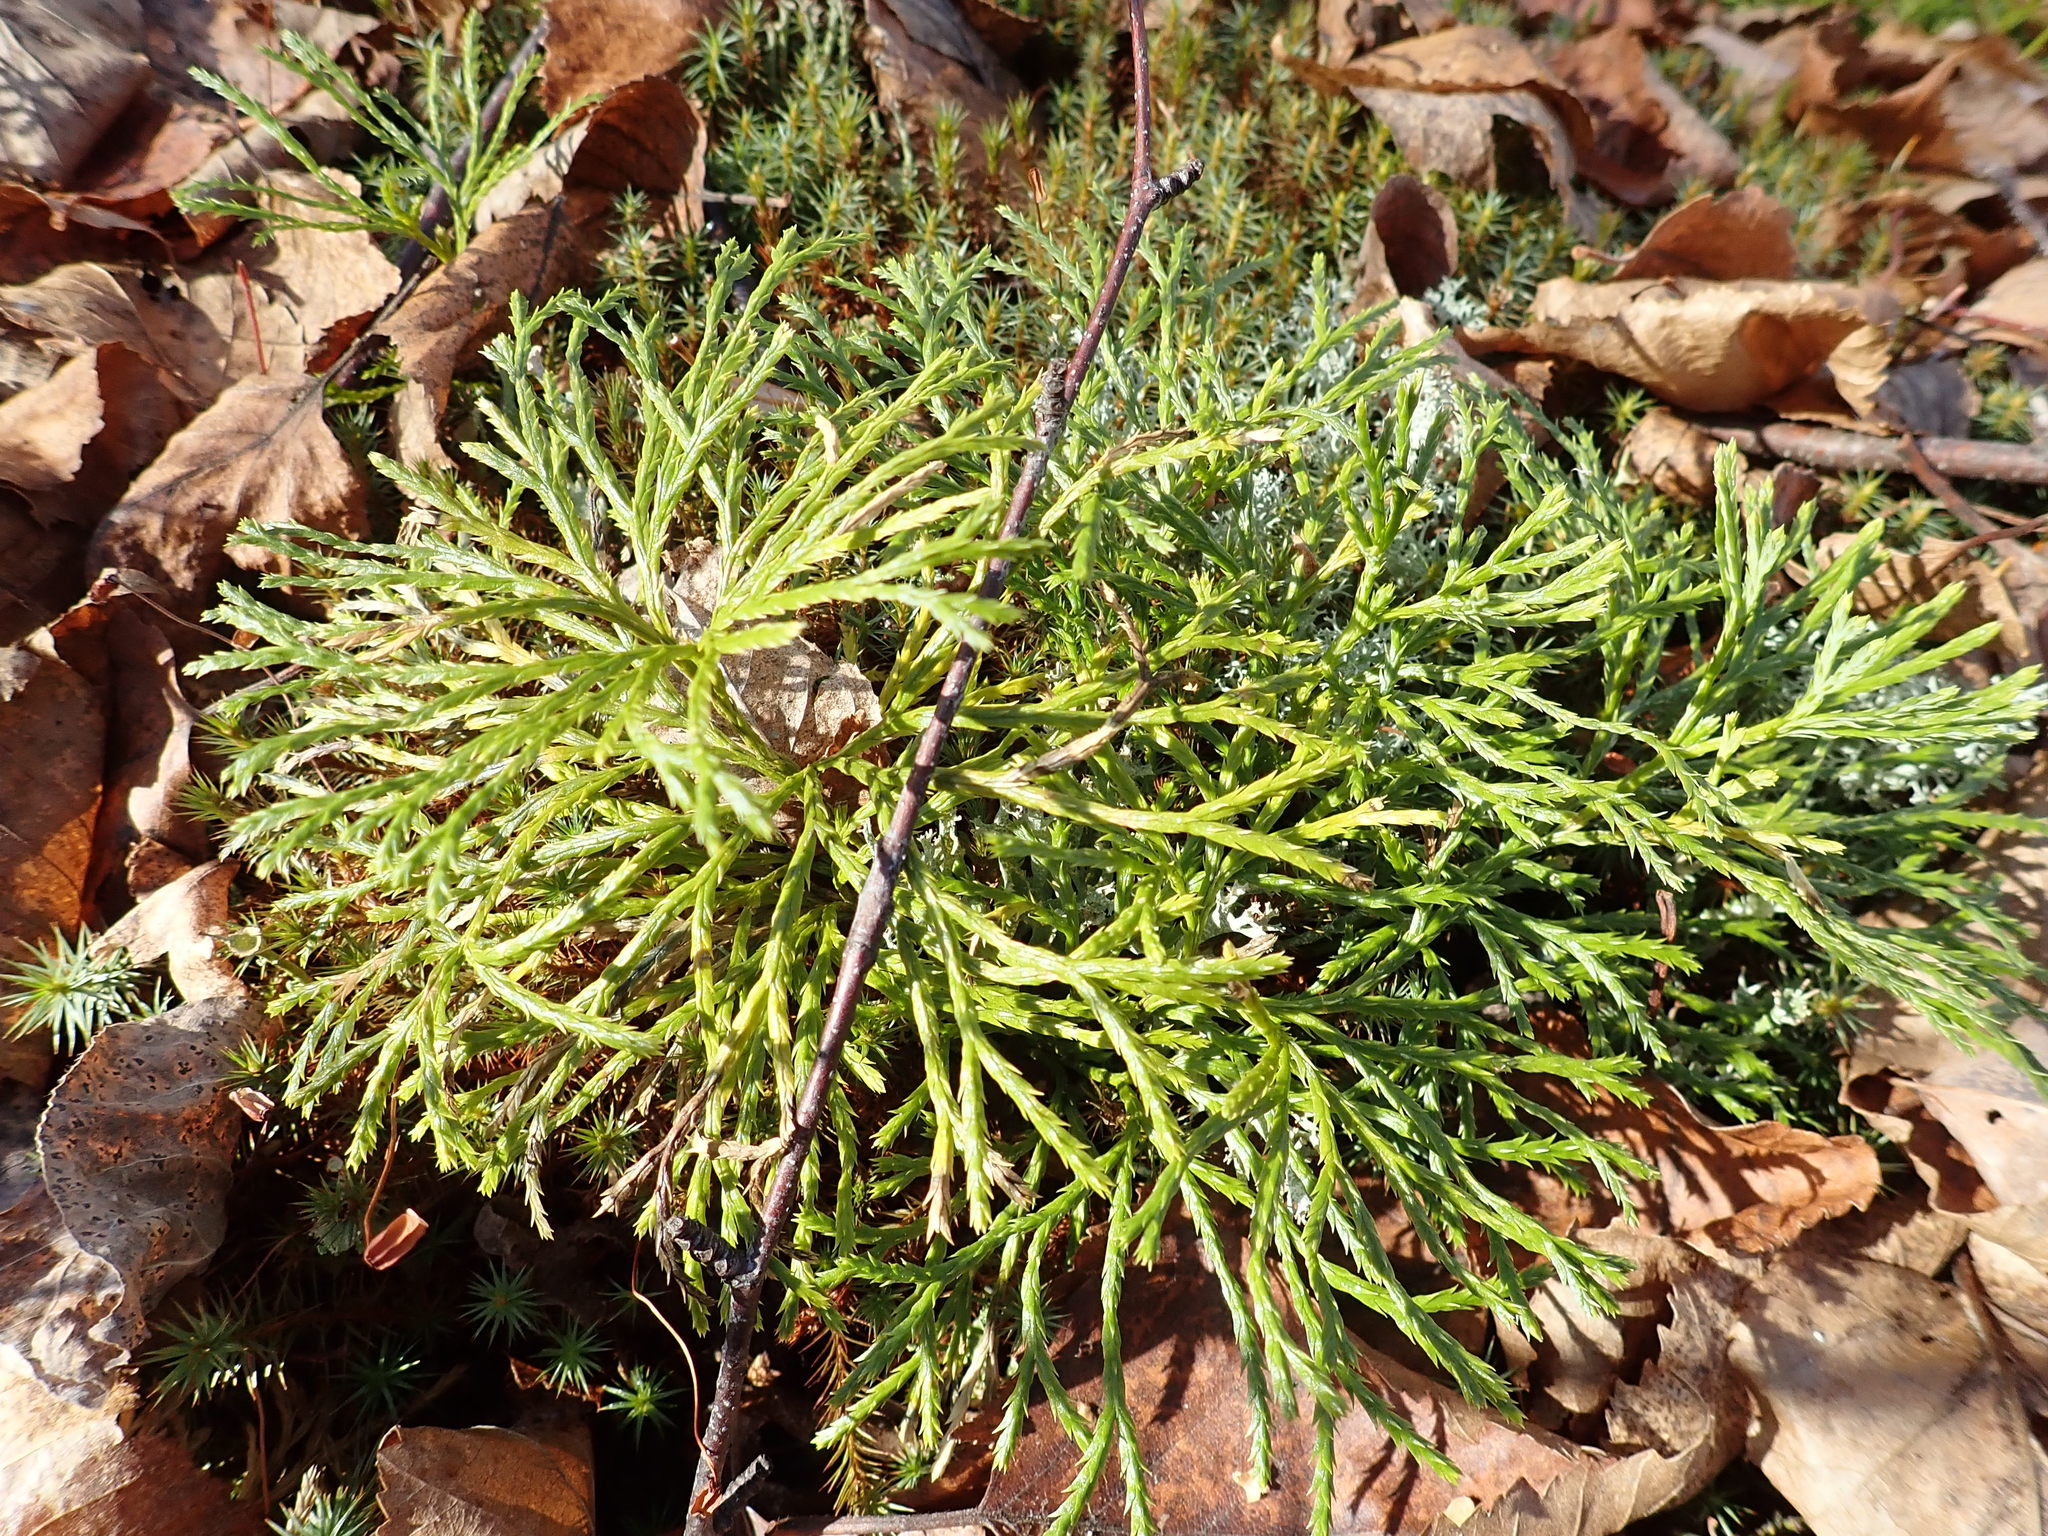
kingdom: Plantae
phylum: Tracheophyta
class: Lycopodiopsida
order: Lycopodiales
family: Lycopodiaceae
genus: Diphasiastrum
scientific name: Diphasiastrum complanatum
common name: Northern running-pine
